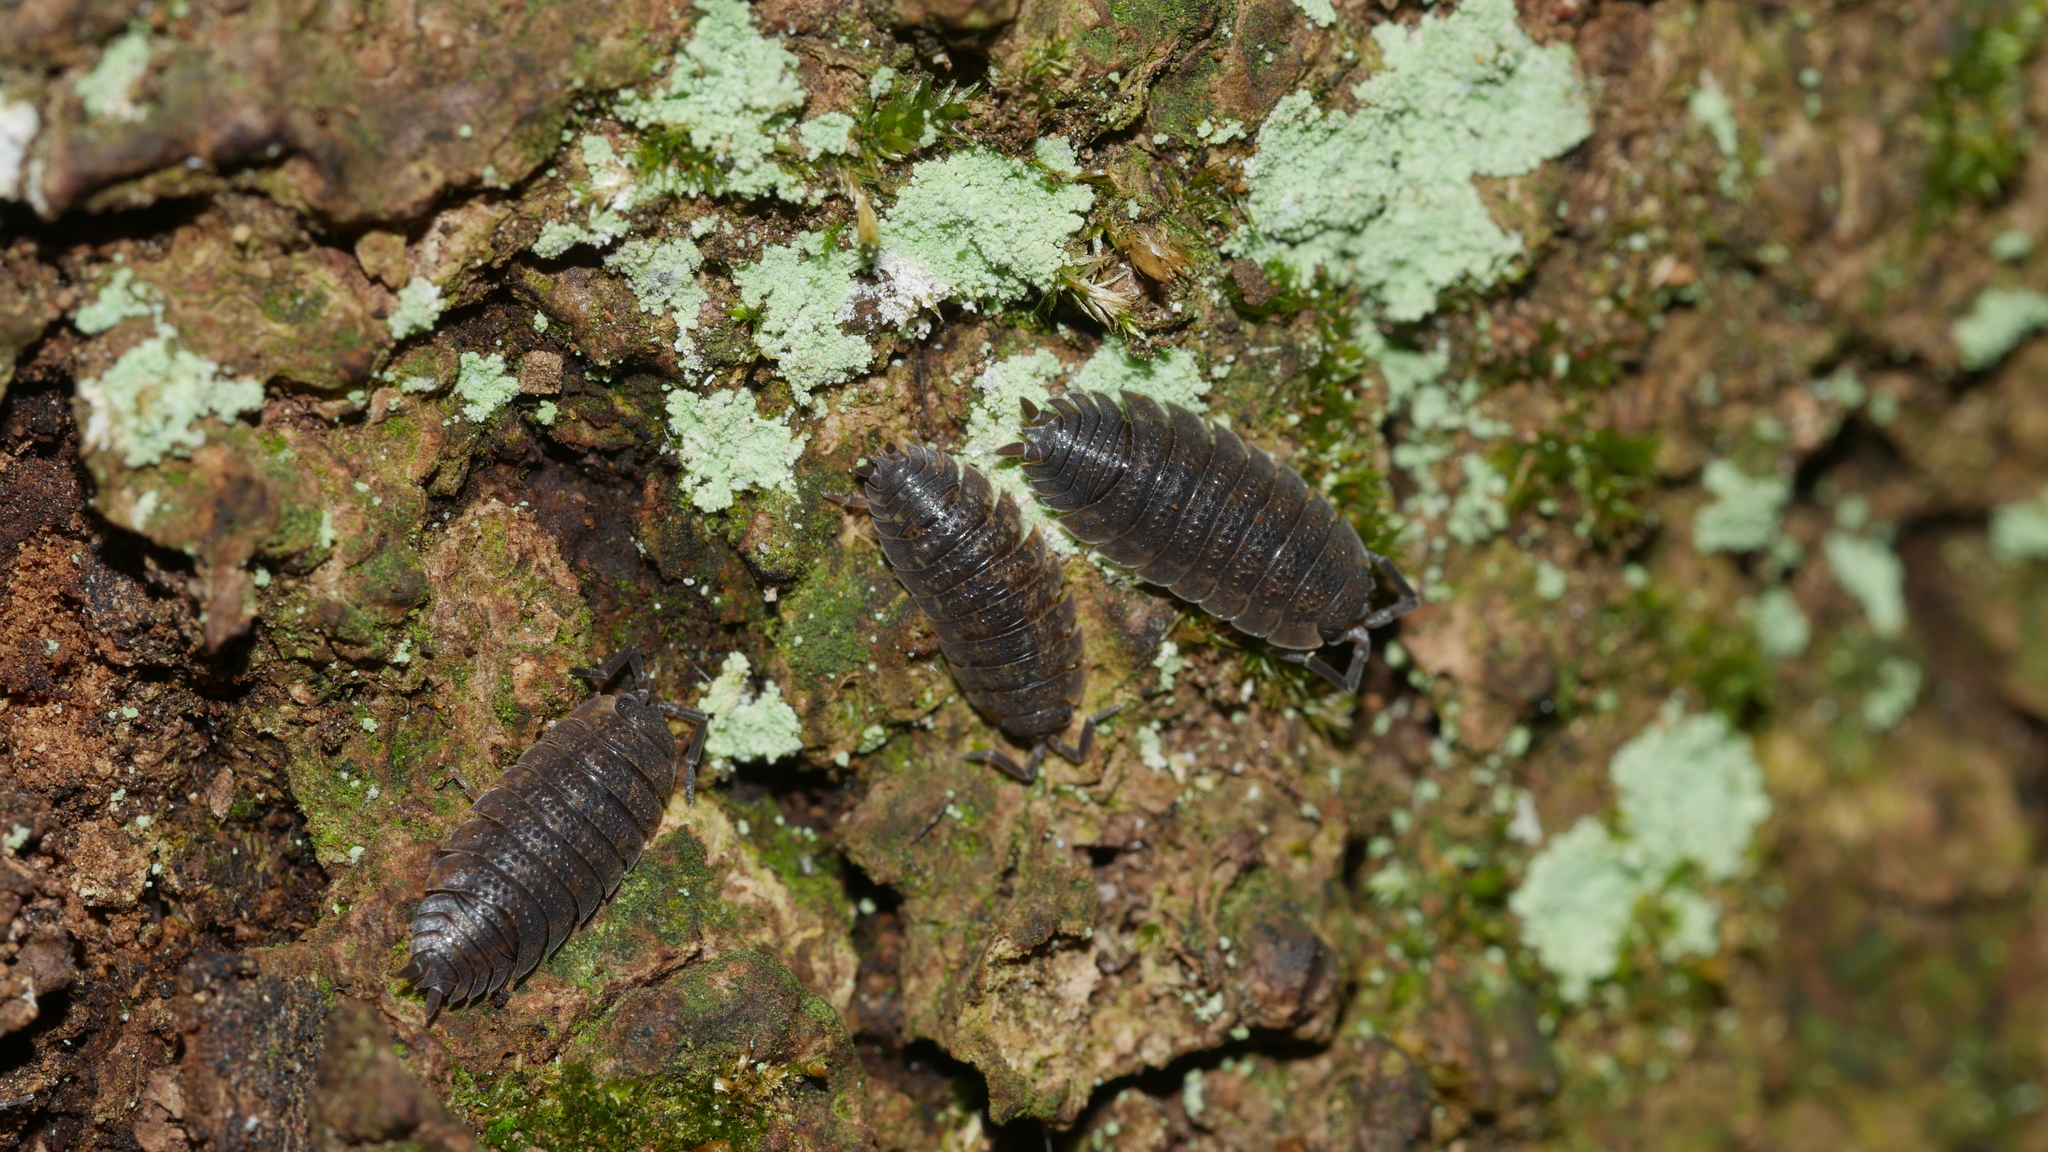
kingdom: Animalia
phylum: Arthropoda
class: Malacostraca
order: Isopoda
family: Porcellionidae
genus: Porcellio
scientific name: Porcellio scaber
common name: Common rough woodlouse
